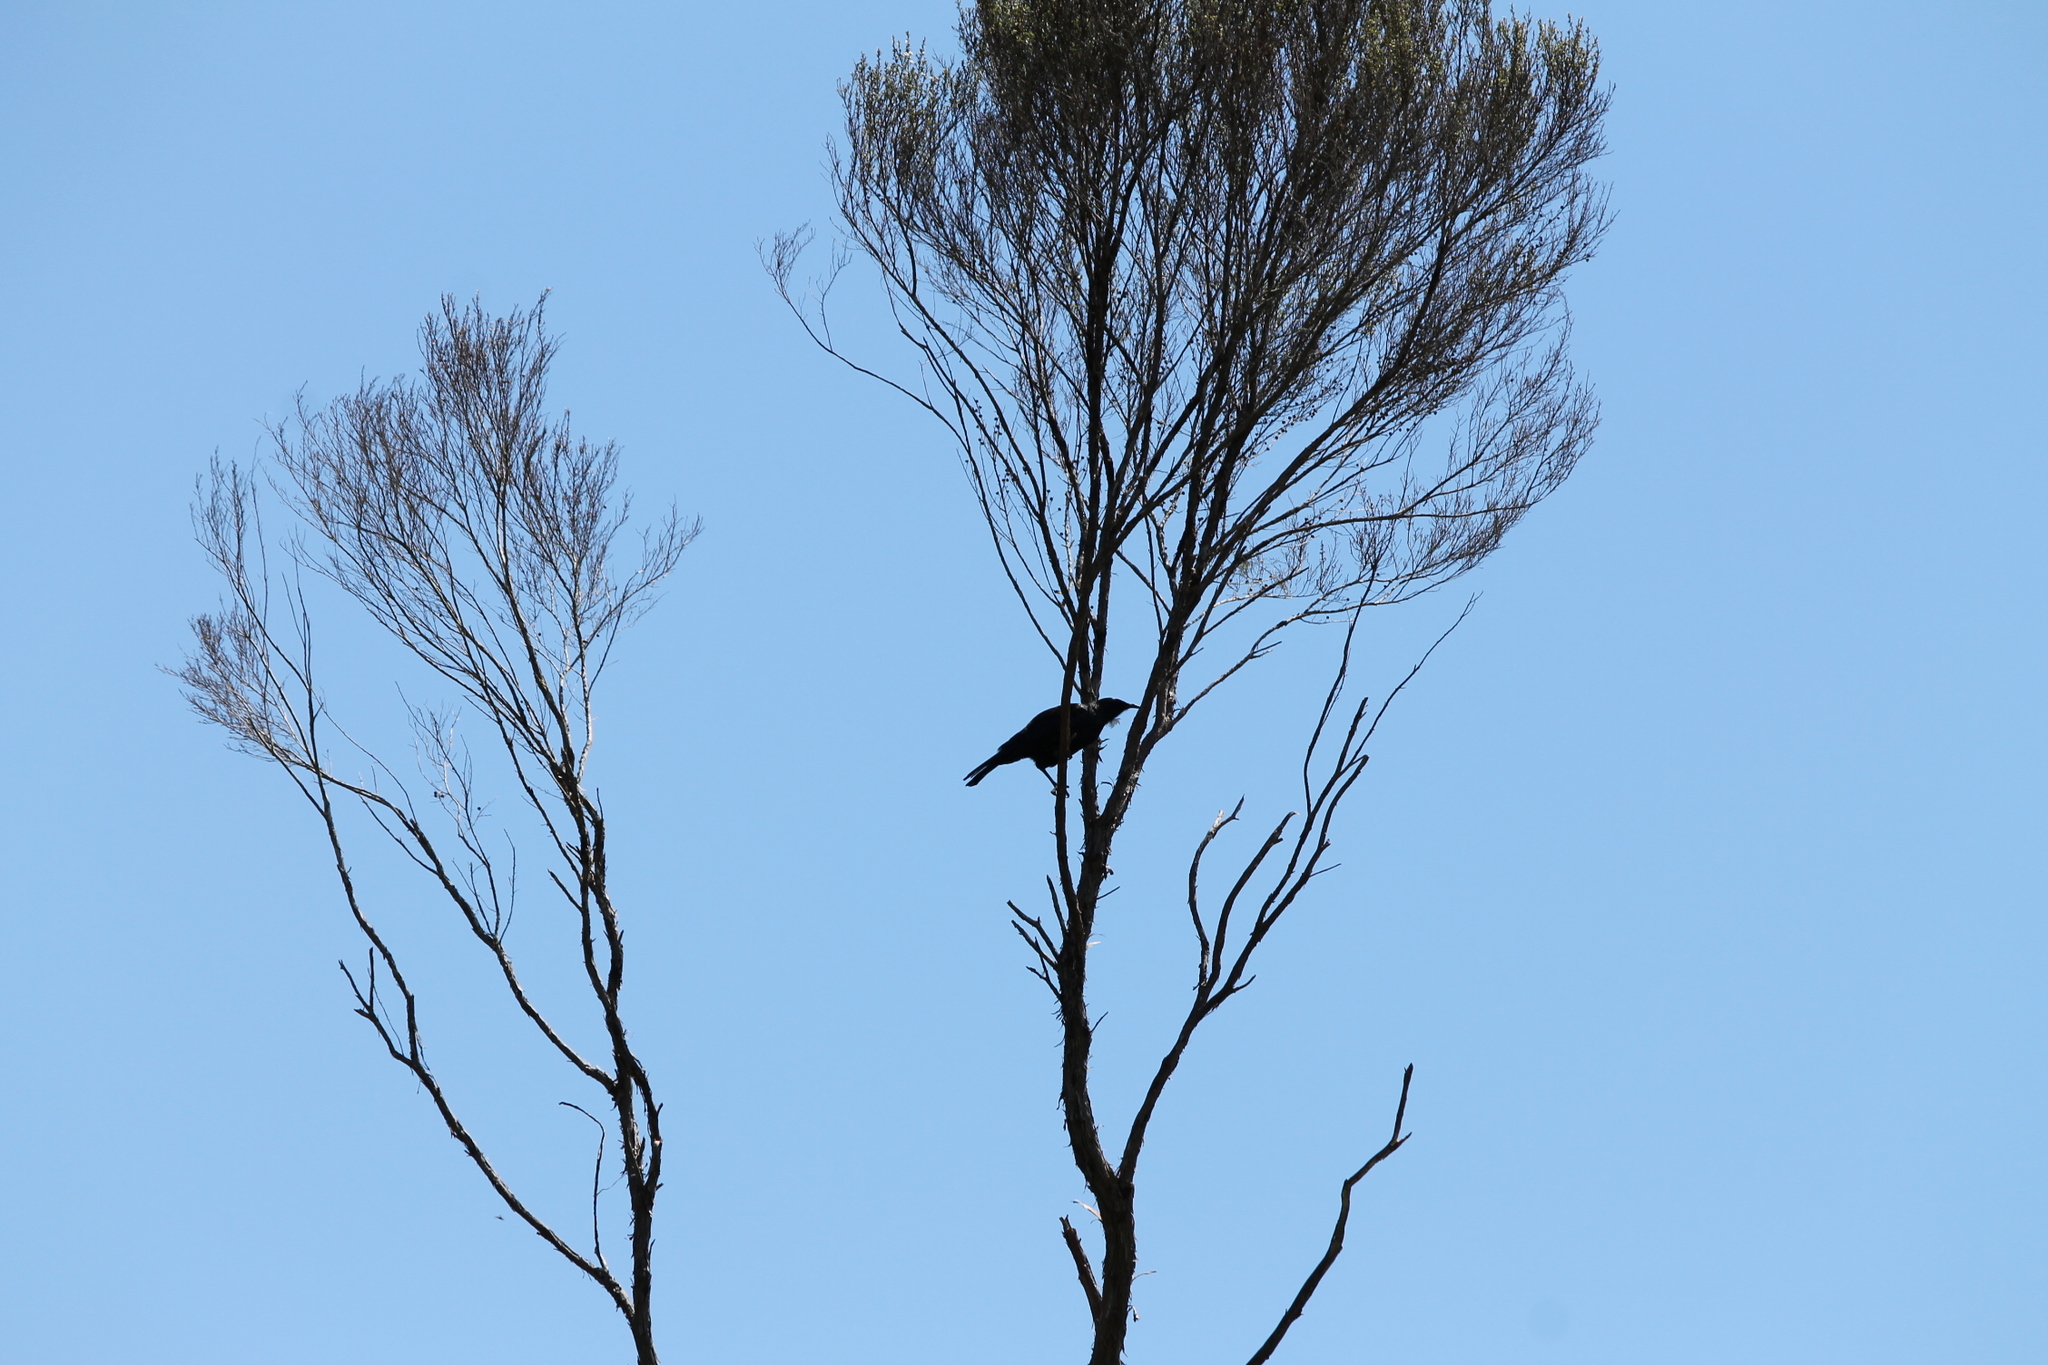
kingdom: Animalia
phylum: Chordata
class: Aves
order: Passeriformes
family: Meliphagidae
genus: Prosthemadera
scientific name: Prosthemadera novaeseelandiae
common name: Tui
